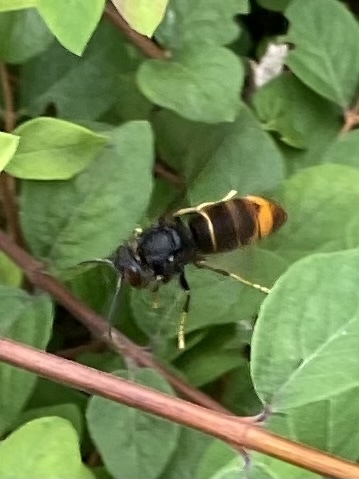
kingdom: Animalia
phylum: Arthropoda
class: Insecta
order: Hymenoptera
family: Vespidae
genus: Vespa
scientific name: Vespa velutina
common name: Asian hornet
